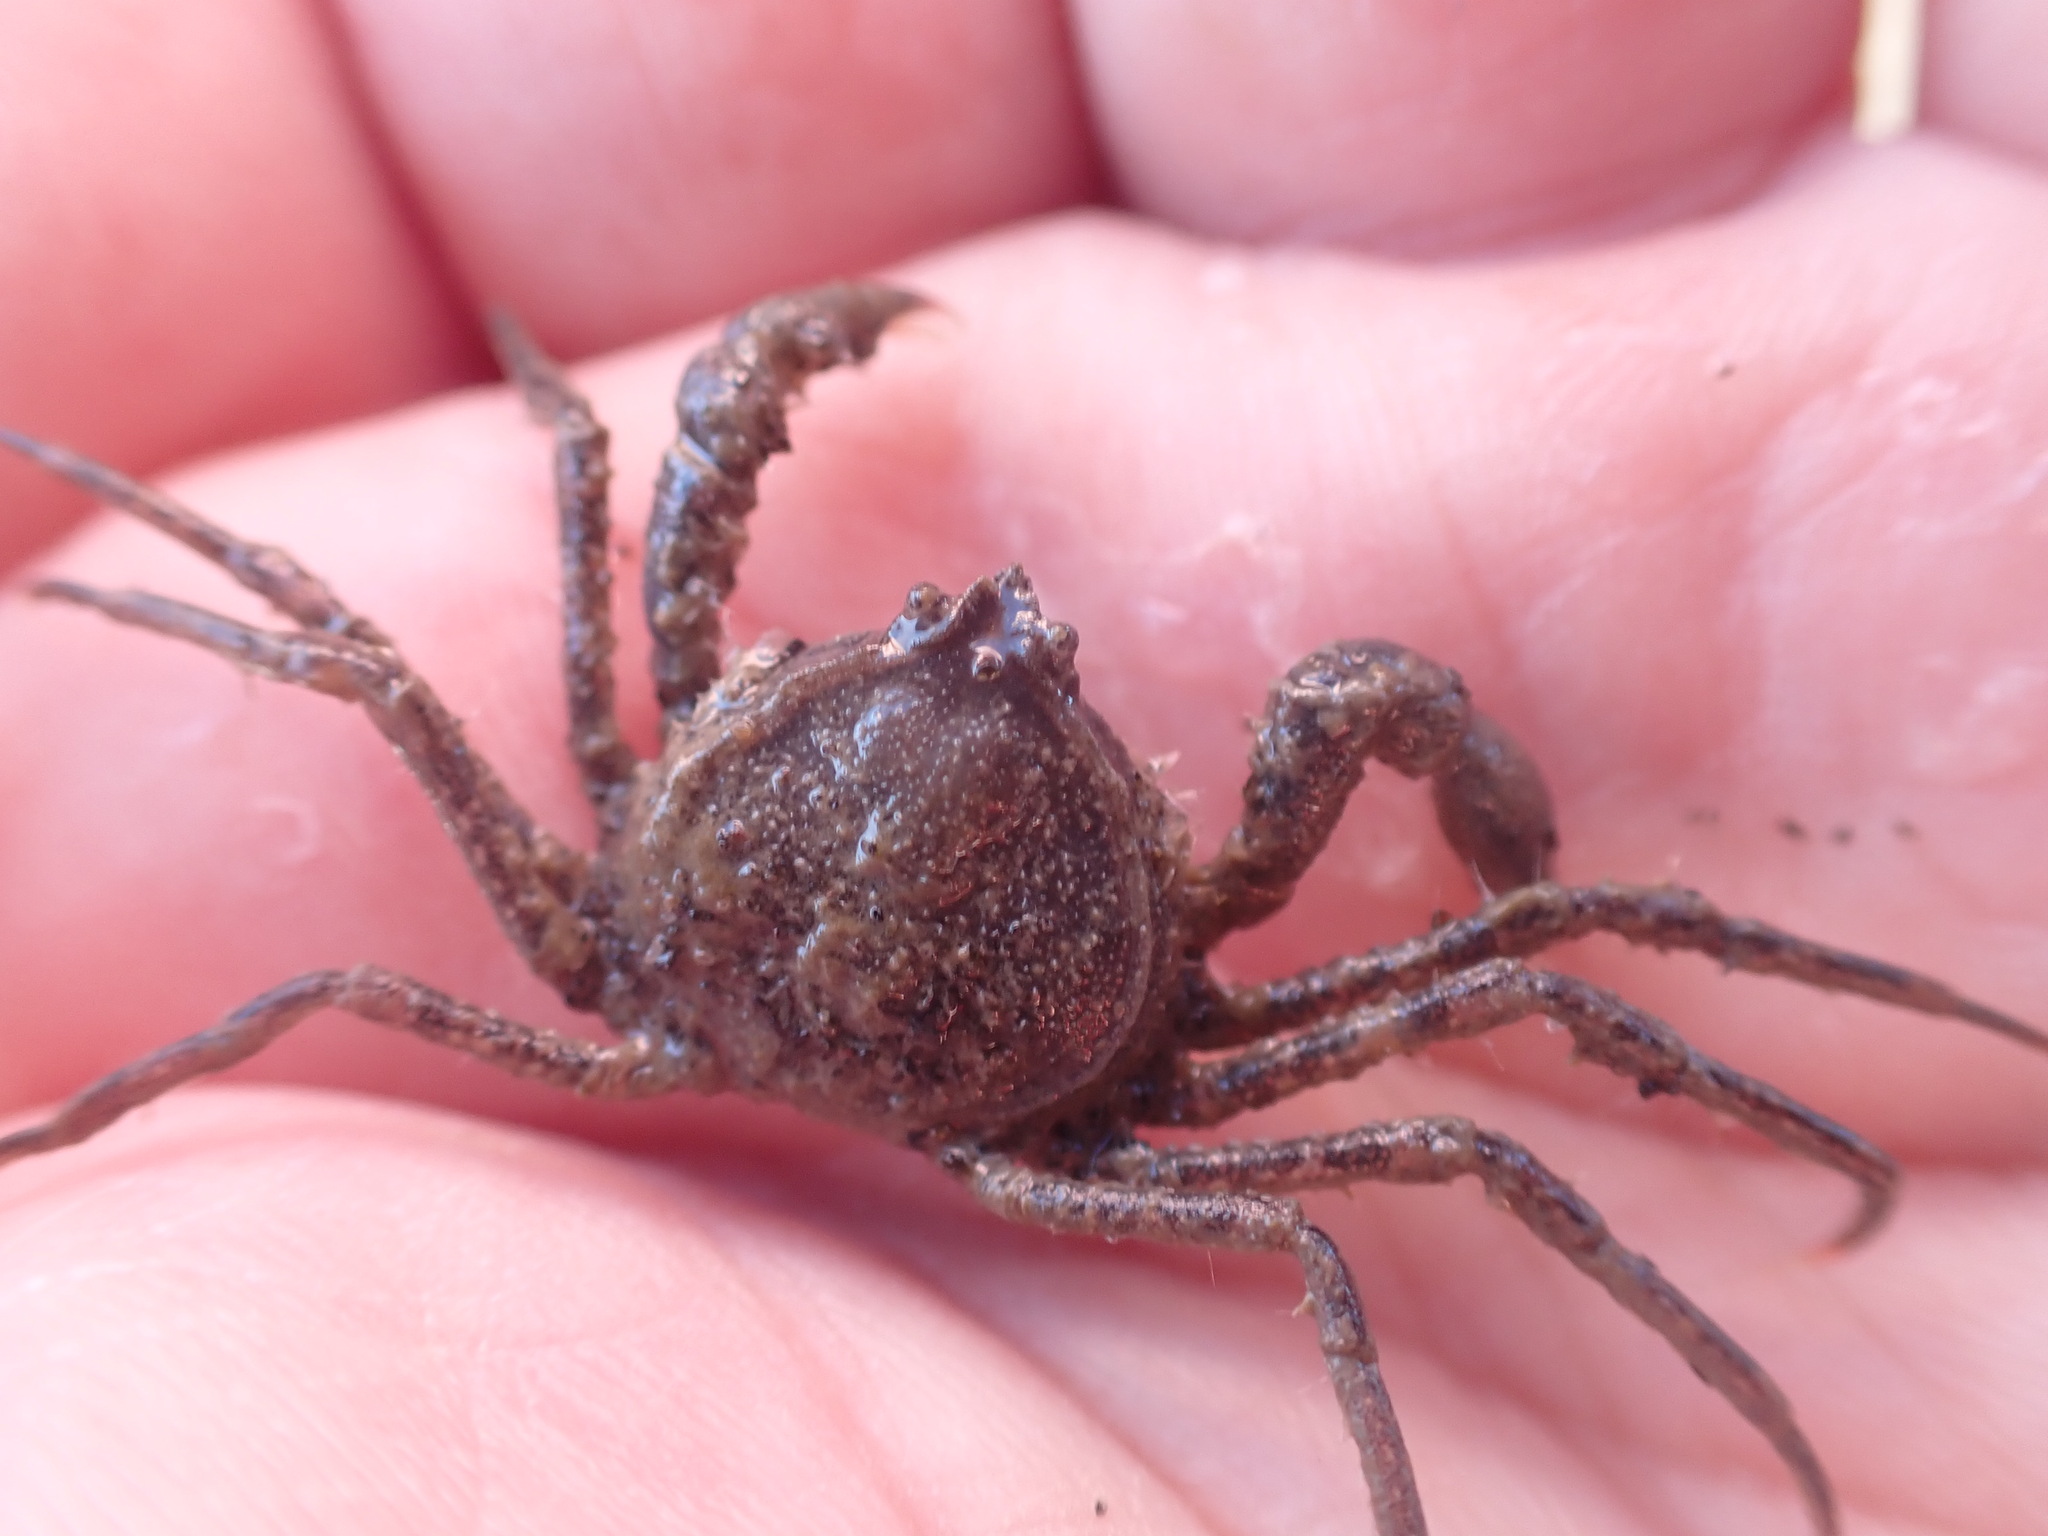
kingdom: Animalia
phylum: Arthropoda
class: Malacostraca
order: Decapoda
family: Hymenosomatidae
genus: Halicarcinus
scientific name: Halicarcinus whitei
